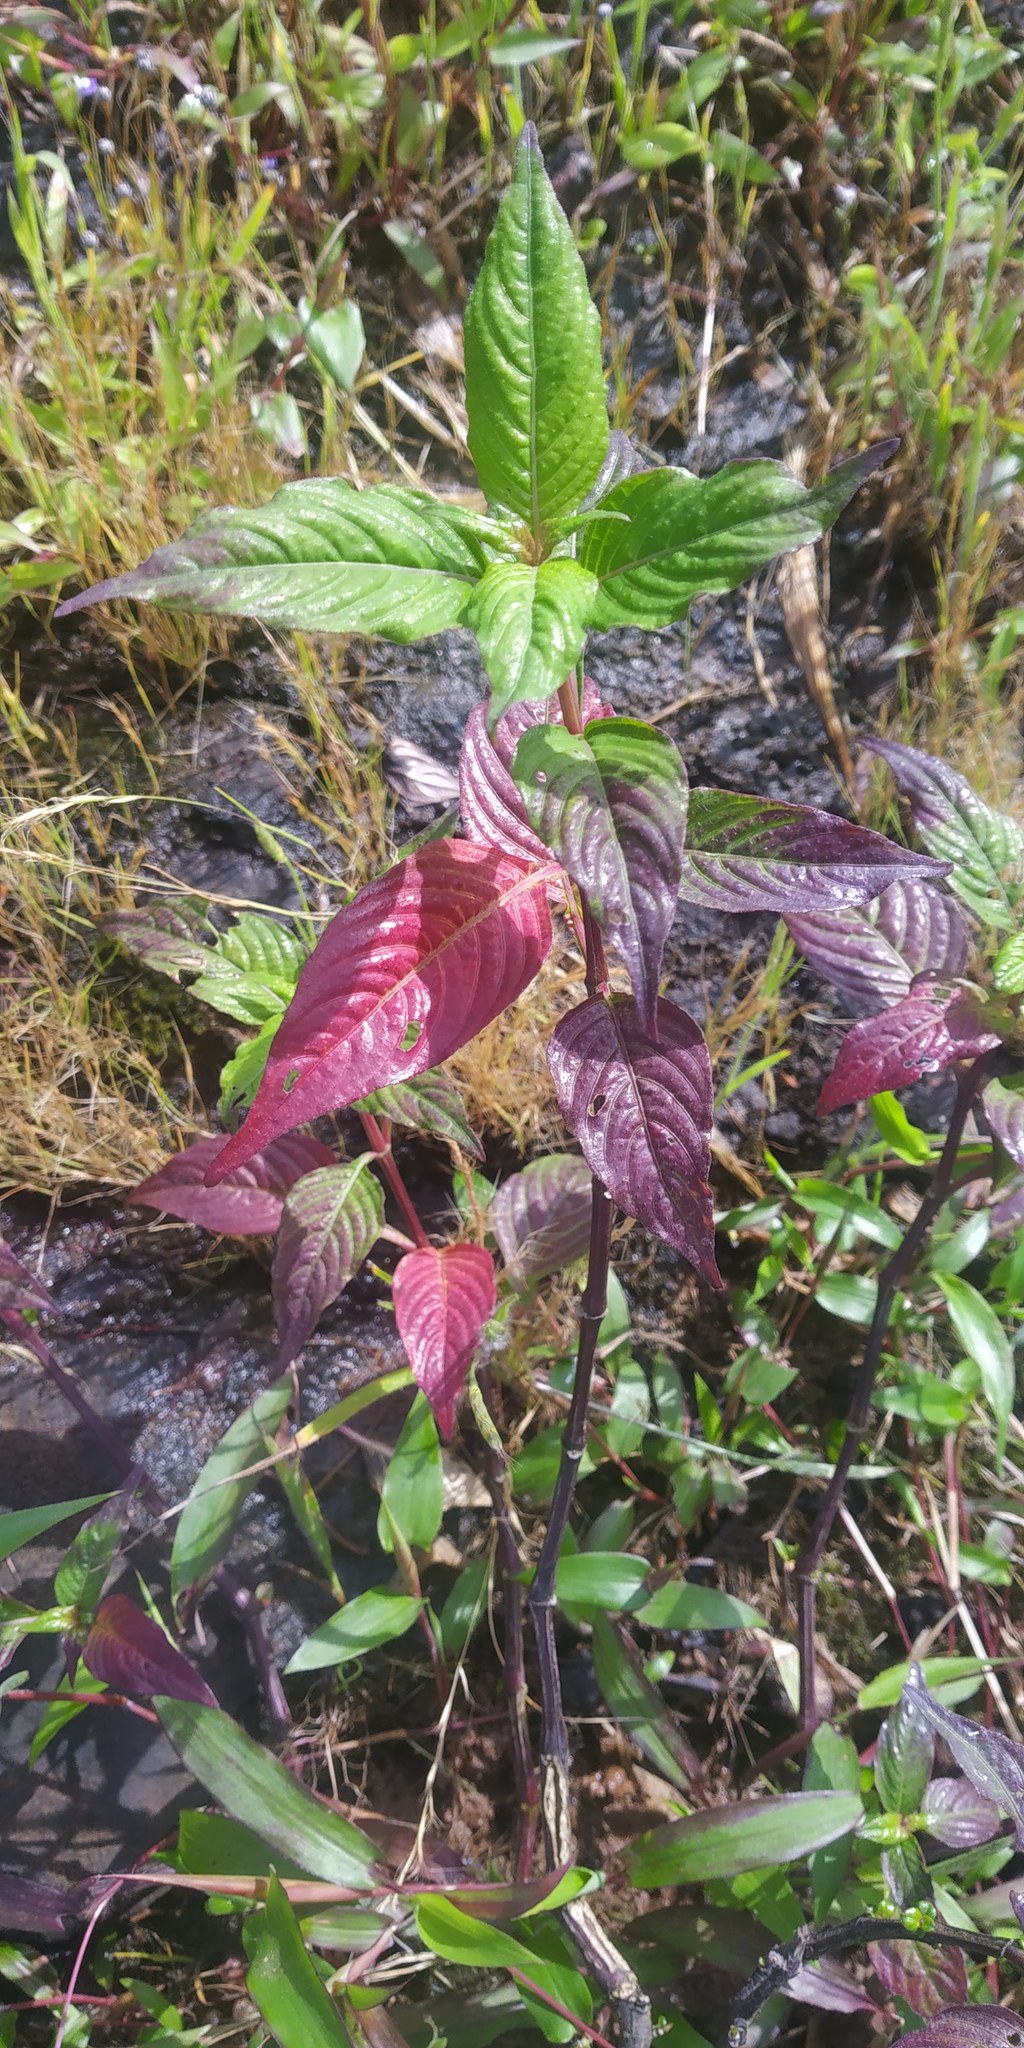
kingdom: Plantae
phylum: Tracheophyta
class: Magnoliopsida
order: Lamiales
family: Acanthaceae
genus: Lepidagathis
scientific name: Lepidagathis cuspidata
